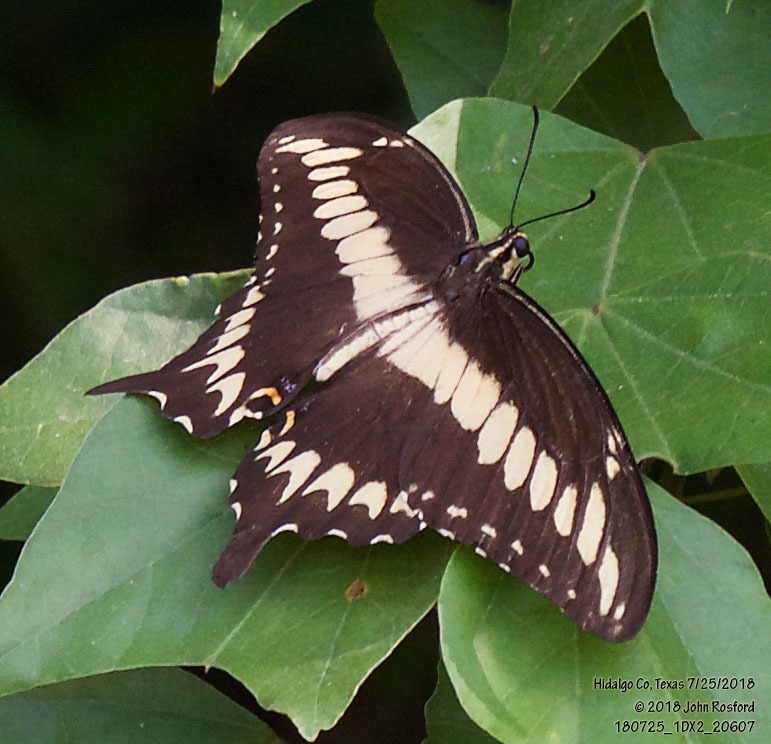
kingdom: Animalia
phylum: Arthropoda
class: Insecta
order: Lepidoptera
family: Papilionidae
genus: Papilio
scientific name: Papilio ornythion
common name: Ornythion swallowtail
